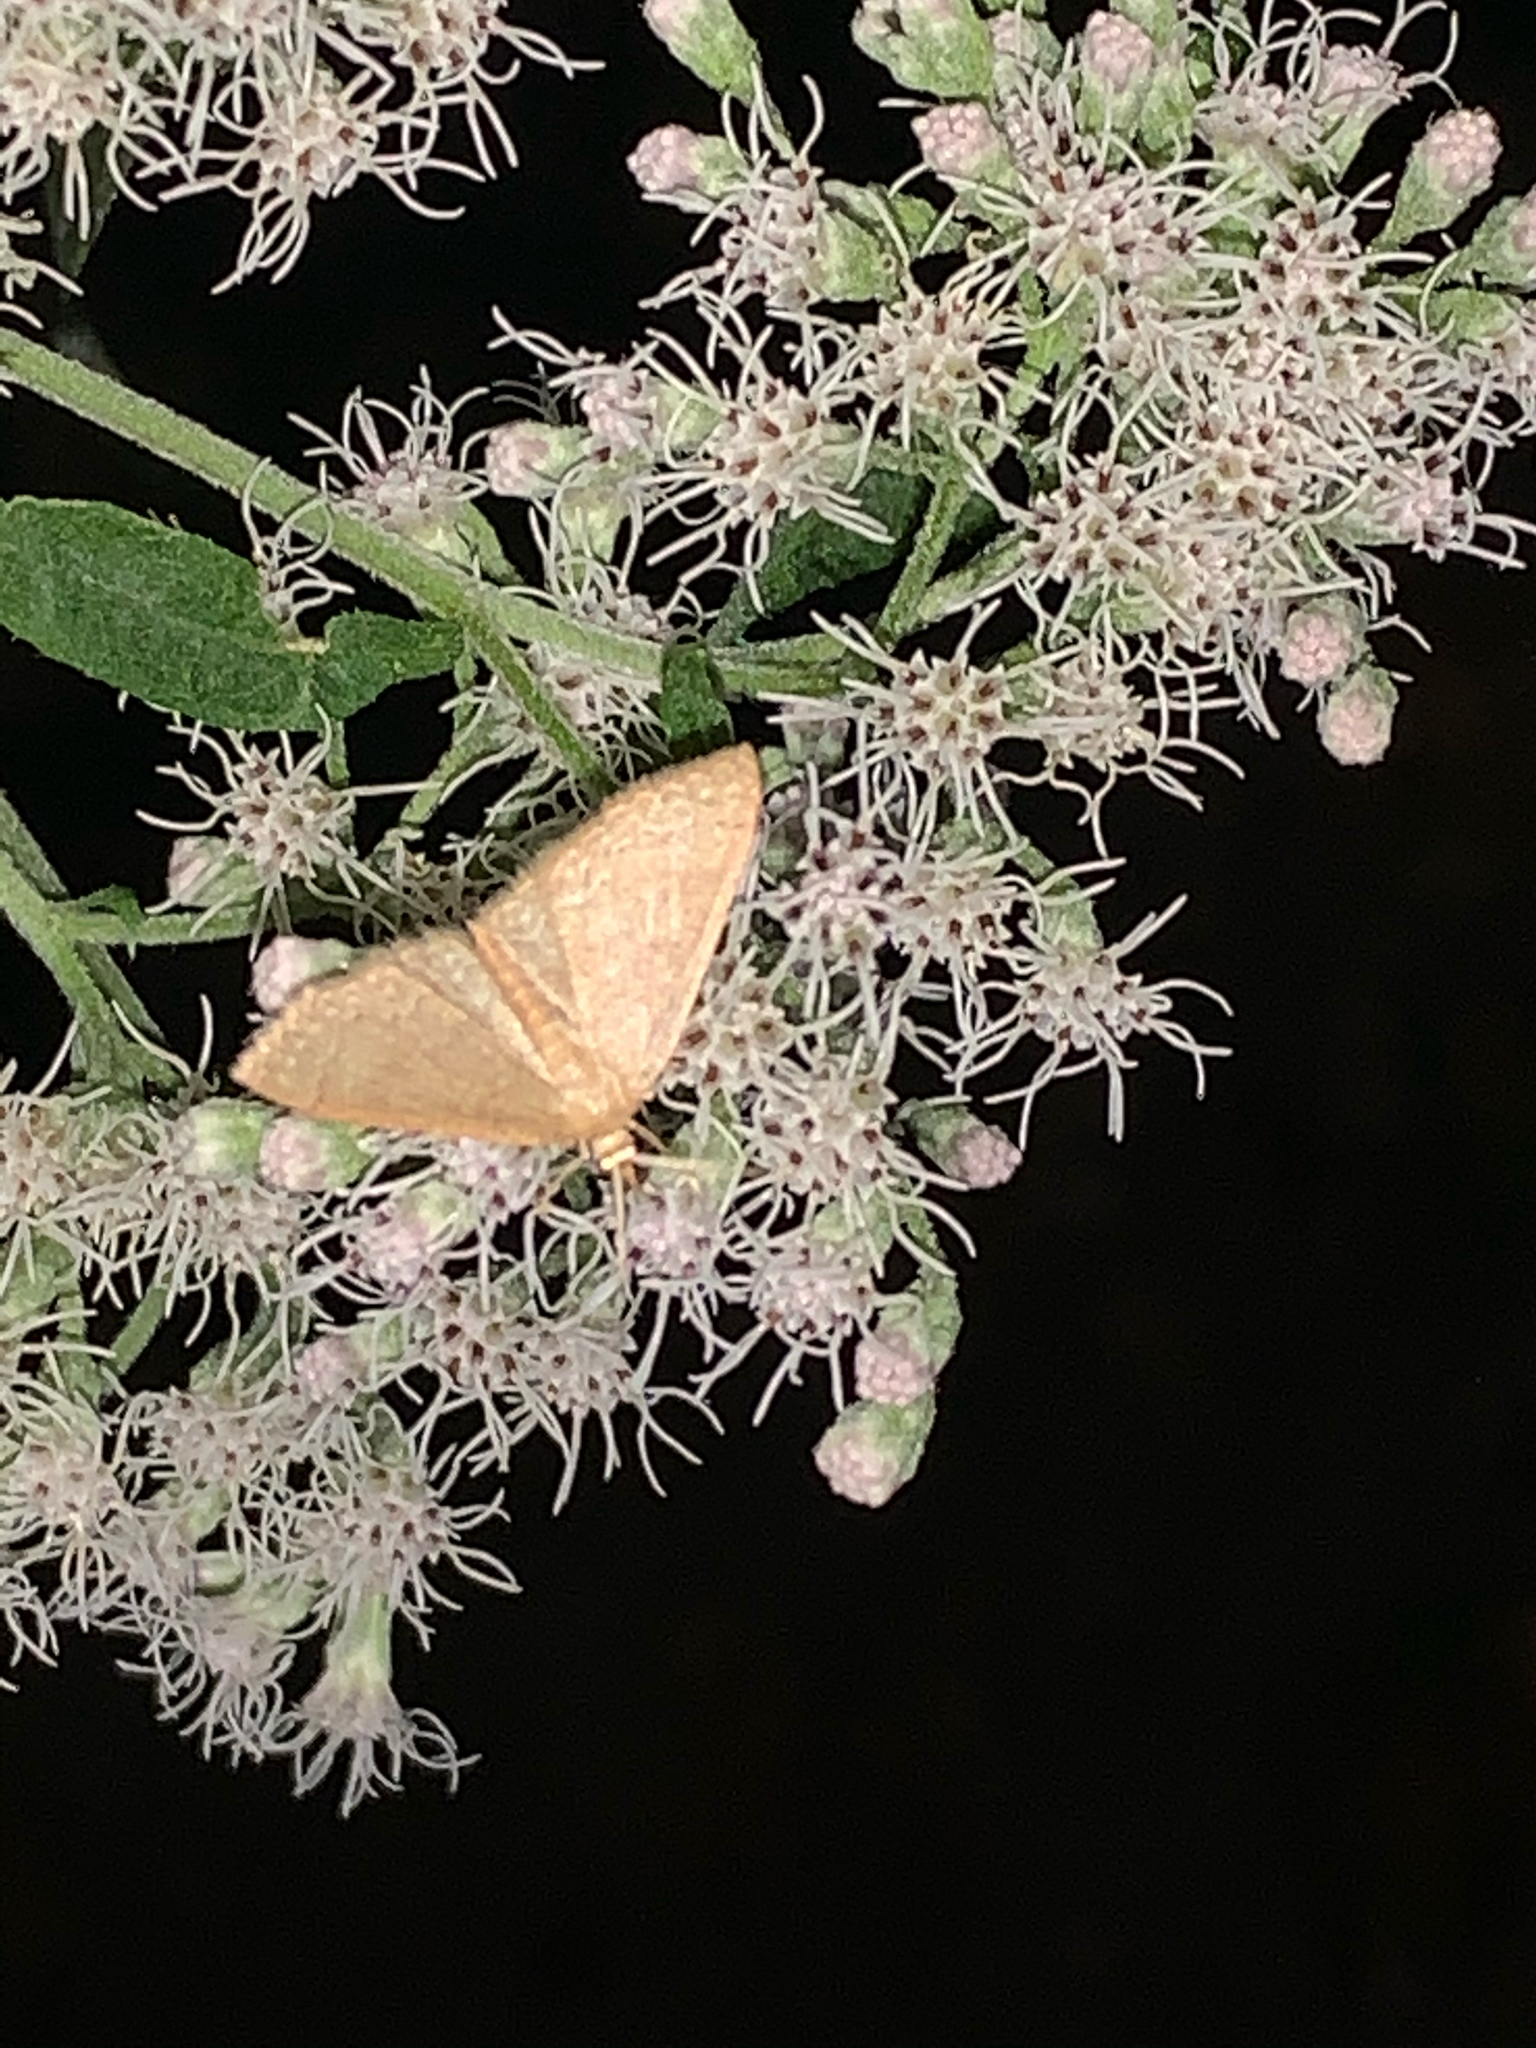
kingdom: Animalia
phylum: Arthropoda
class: Insecta
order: Lepidoptera
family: Geometridae
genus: Pleuroprucha
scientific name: Pleuroprucha insulsaria
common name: Common tan wave
